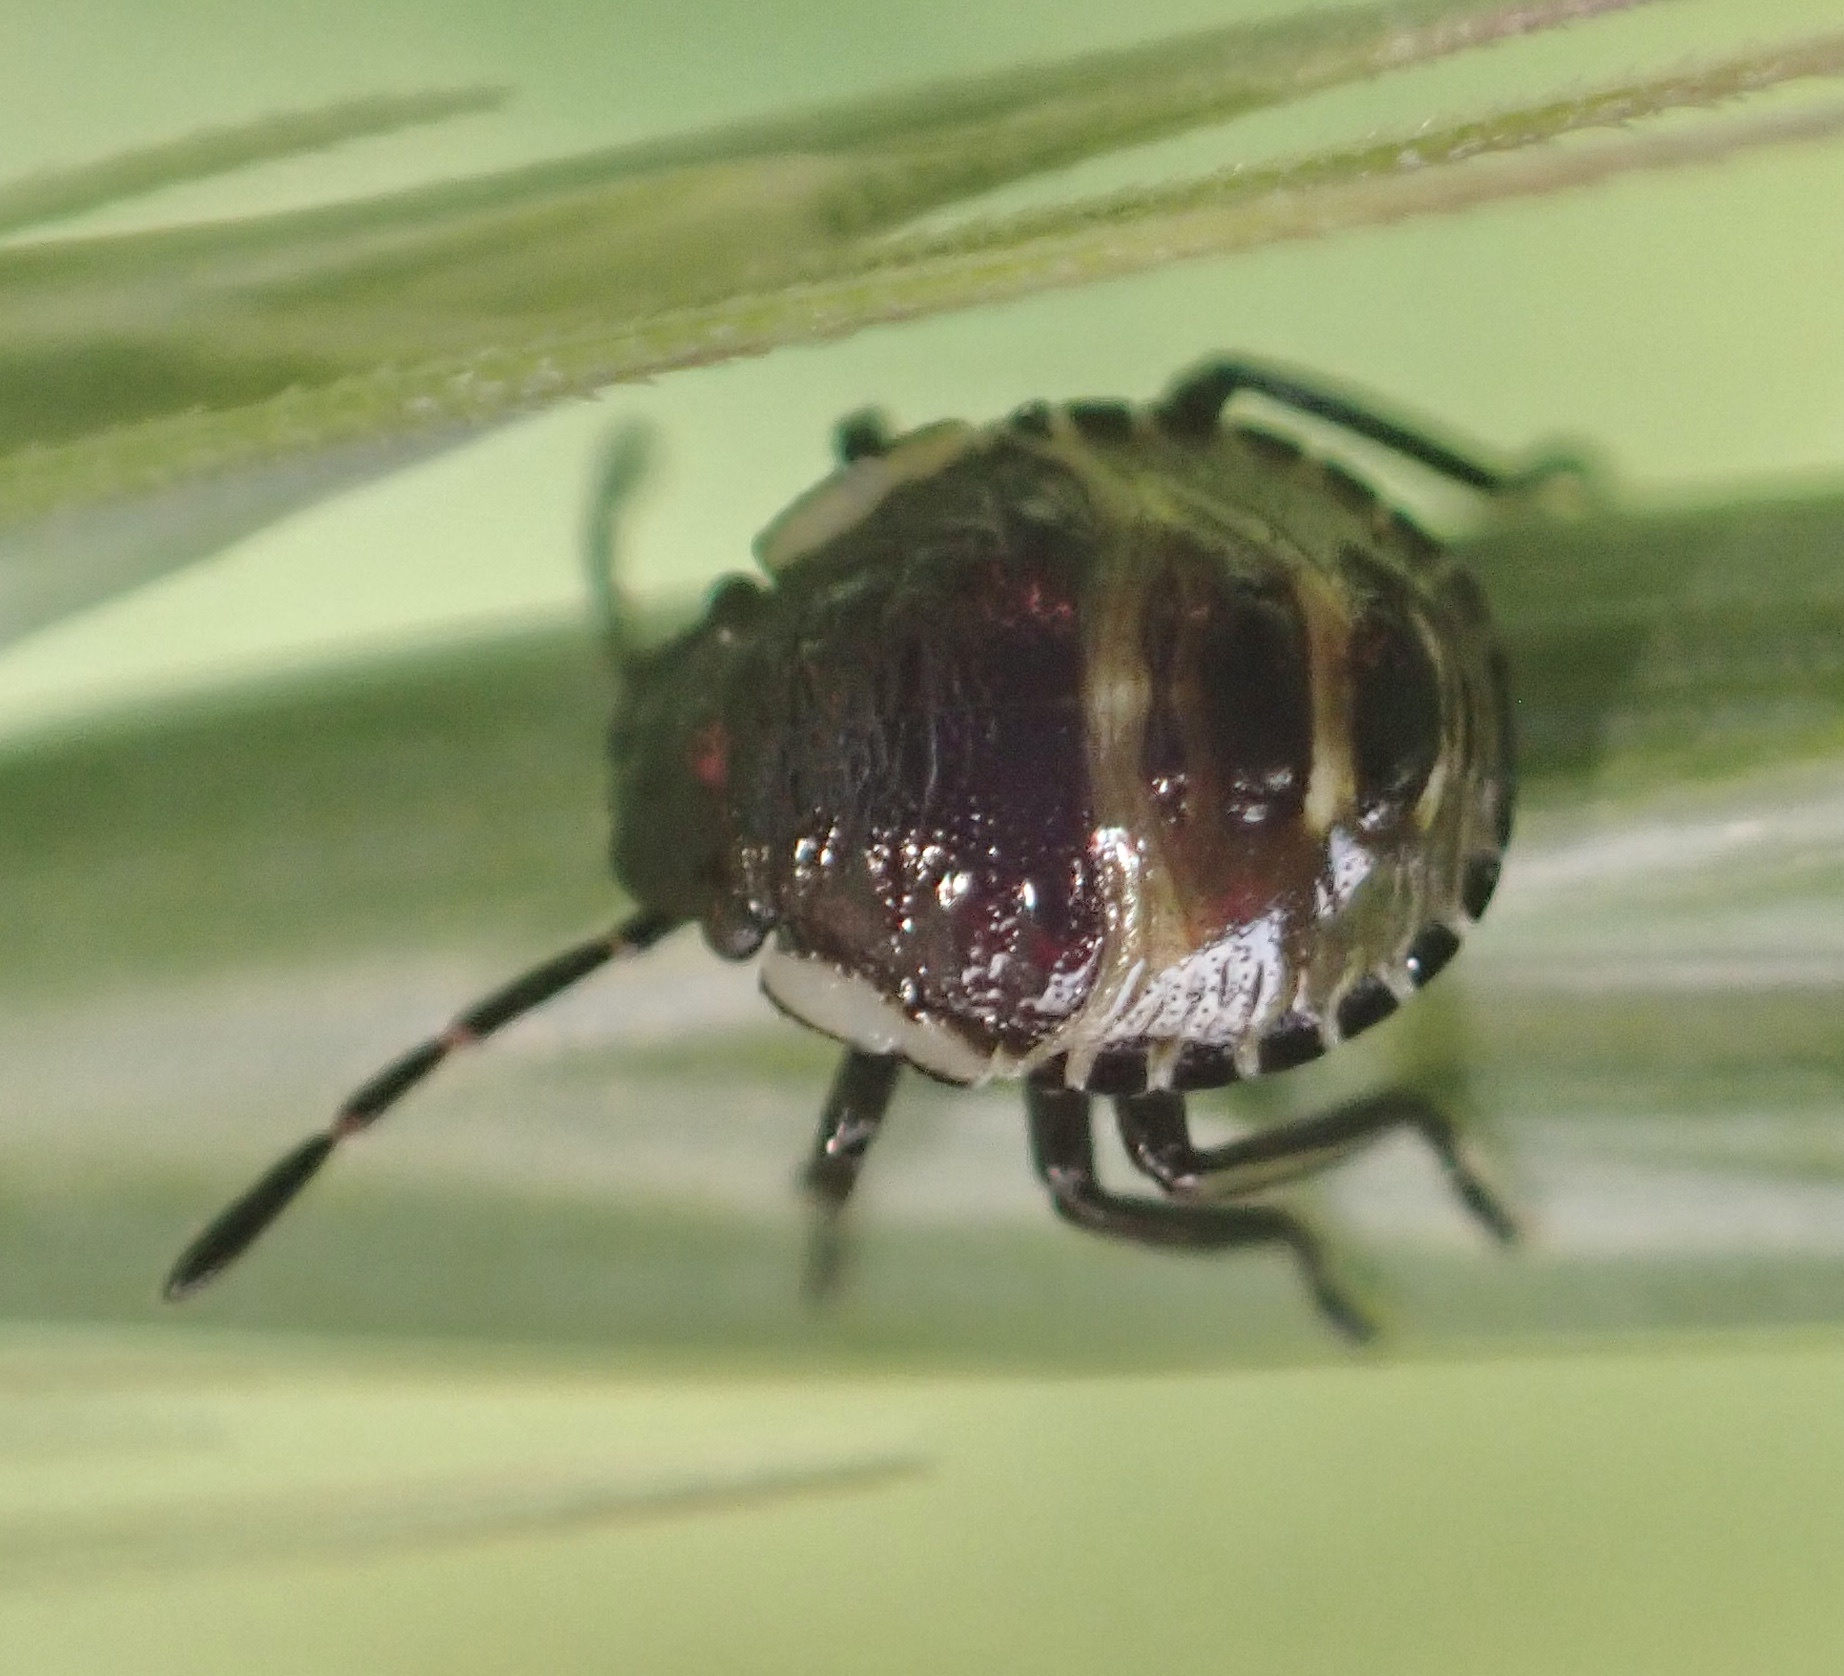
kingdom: Animalia
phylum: Arthropoda
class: Insecta
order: Hemiptera
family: Pentatomidae
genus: Palomena
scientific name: Palomena prasina
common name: Green shieldbug
